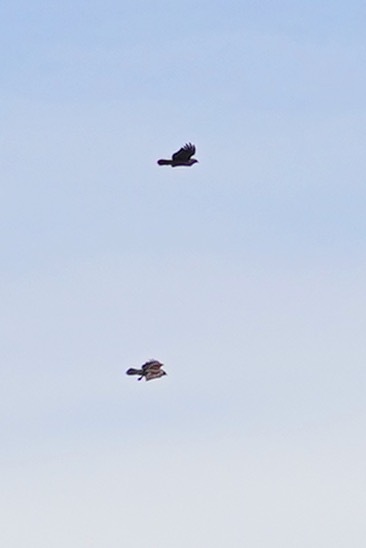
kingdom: Animalia
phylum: Chordata
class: Aves
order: Accipitriformes
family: Accipitridae
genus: Buteo
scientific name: Buteo jamaicensis
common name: Red-tailed hawk
